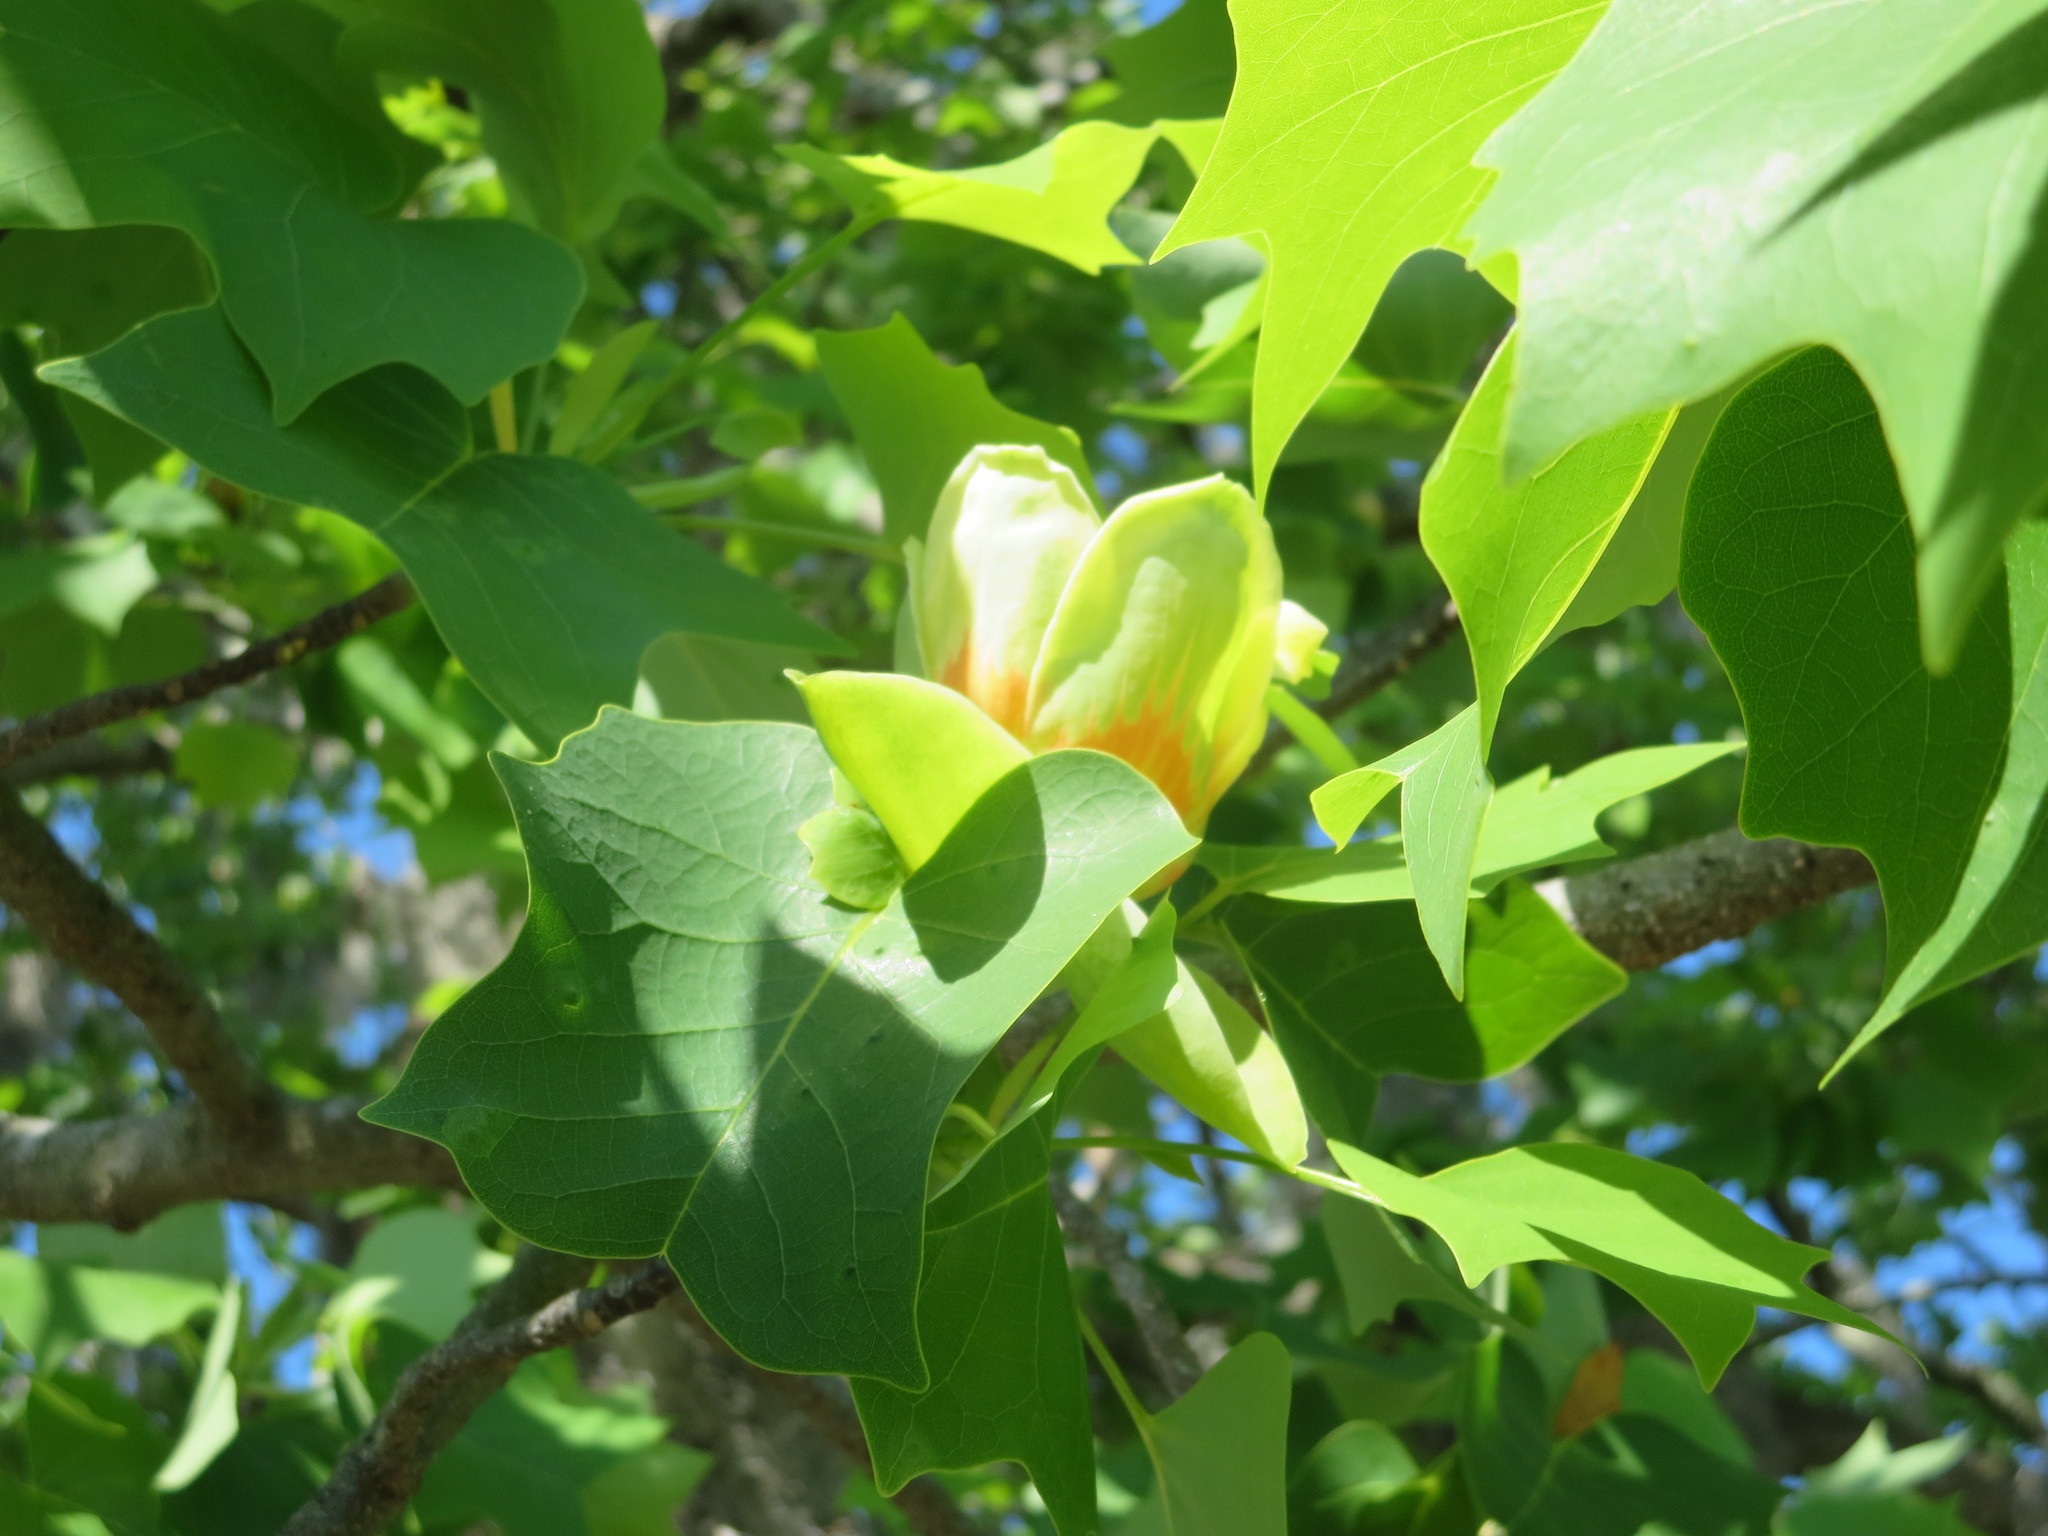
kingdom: Plantae
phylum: Tracheophyta
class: Magnoliopsida
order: Magnoliales
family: Magnoliaceae
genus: Liriodendron
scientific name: Liriodendron tulipifera
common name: Tulip tree
